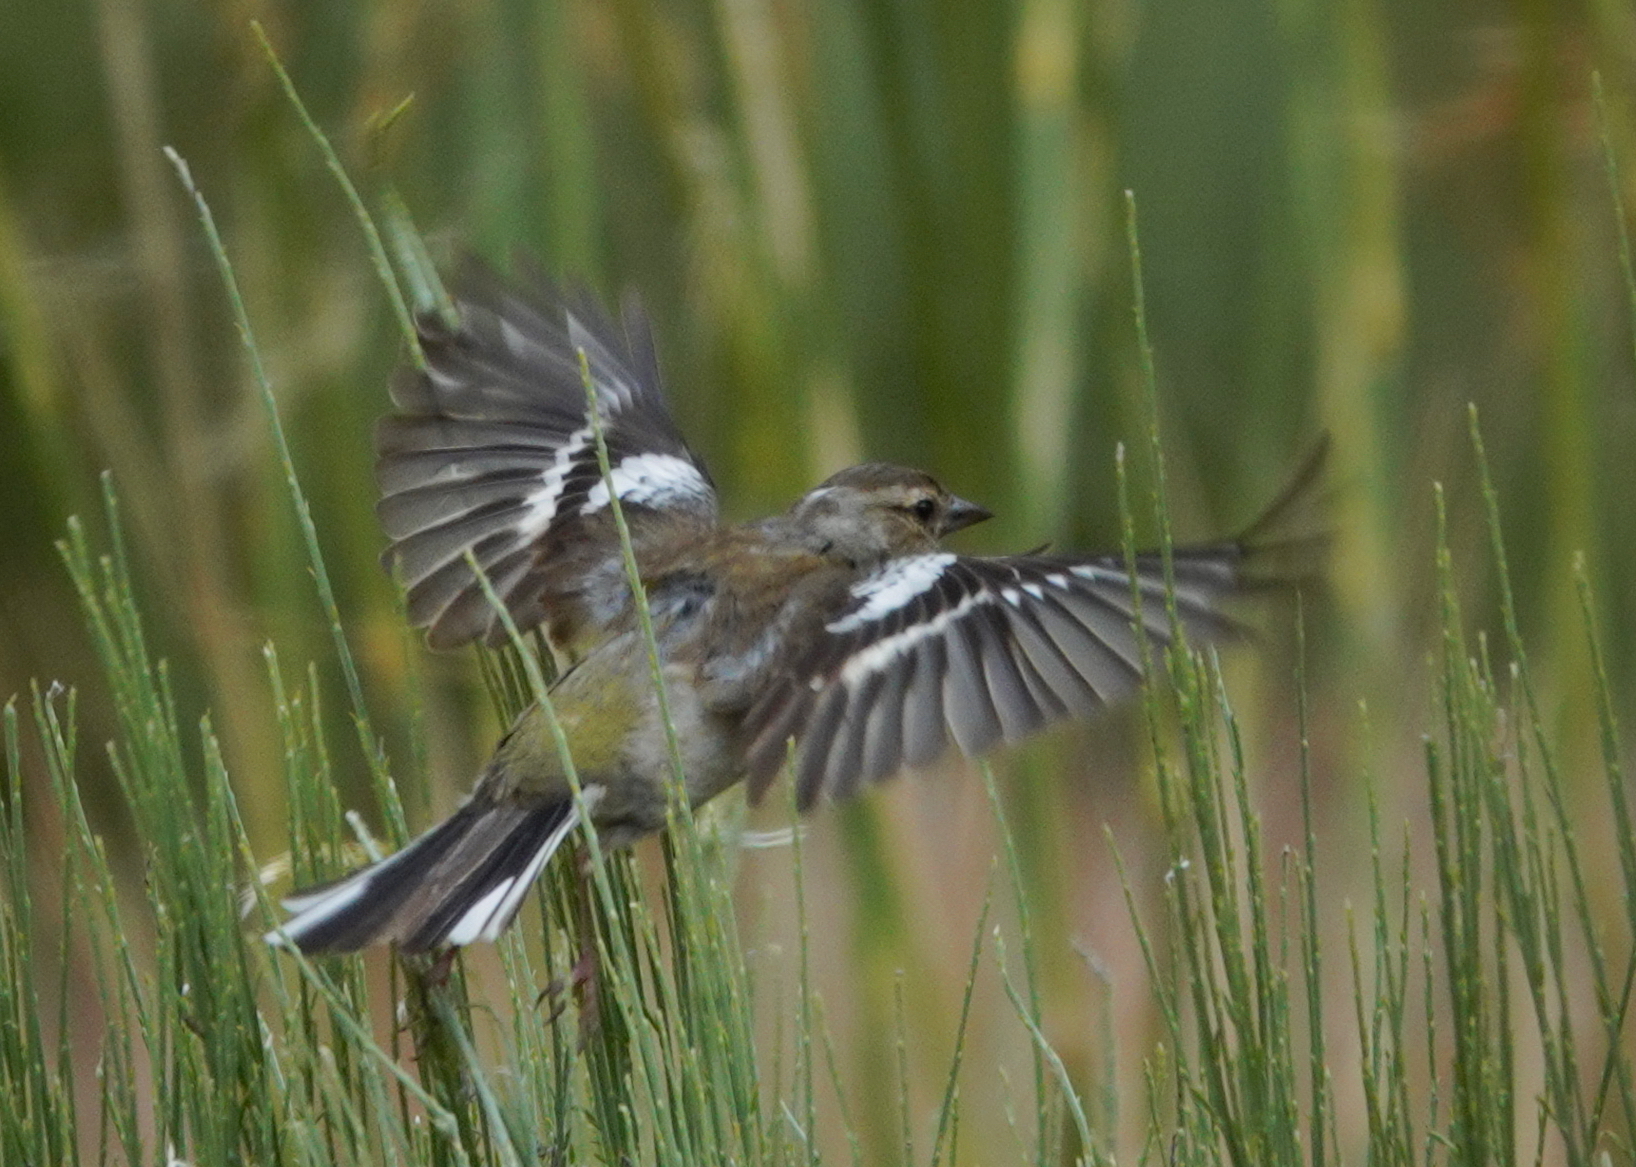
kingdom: Animalia
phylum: Chordata
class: Aves
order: Passeriformes
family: Fringillidae
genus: Fringilla
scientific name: Fringilla coelebs
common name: Common chaffinch
